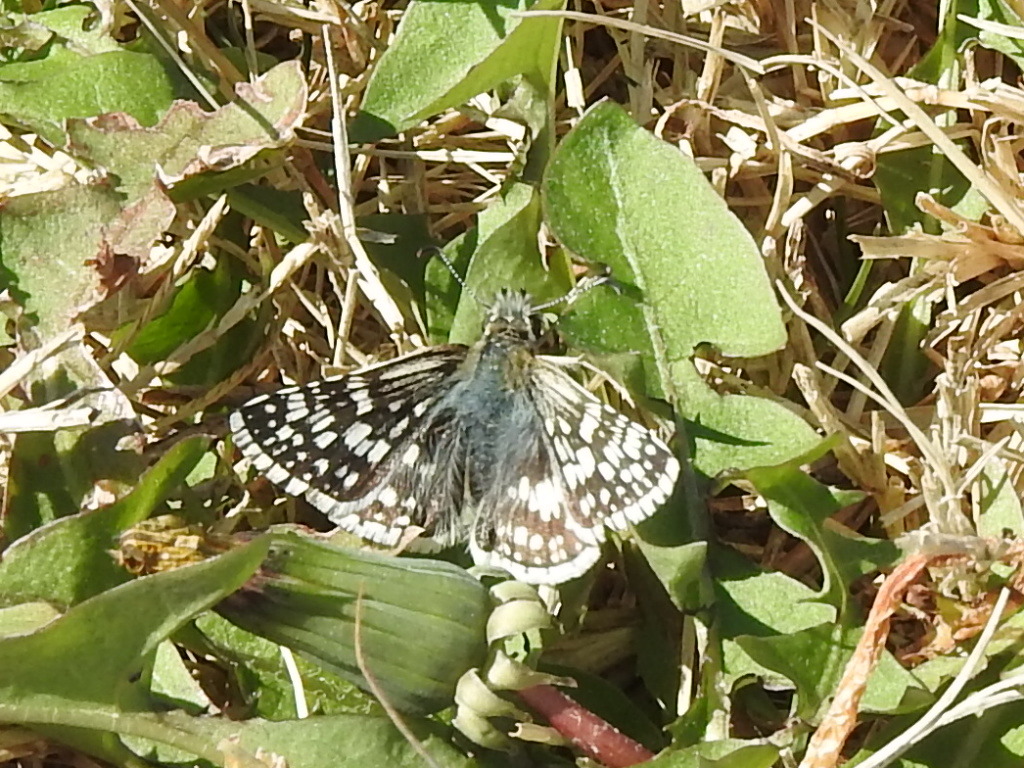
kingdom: Animalia
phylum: Arthropoda
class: Insecta
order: Lepidoptera
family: Hesperiidae
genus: Burnsius
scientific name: Burnsius
